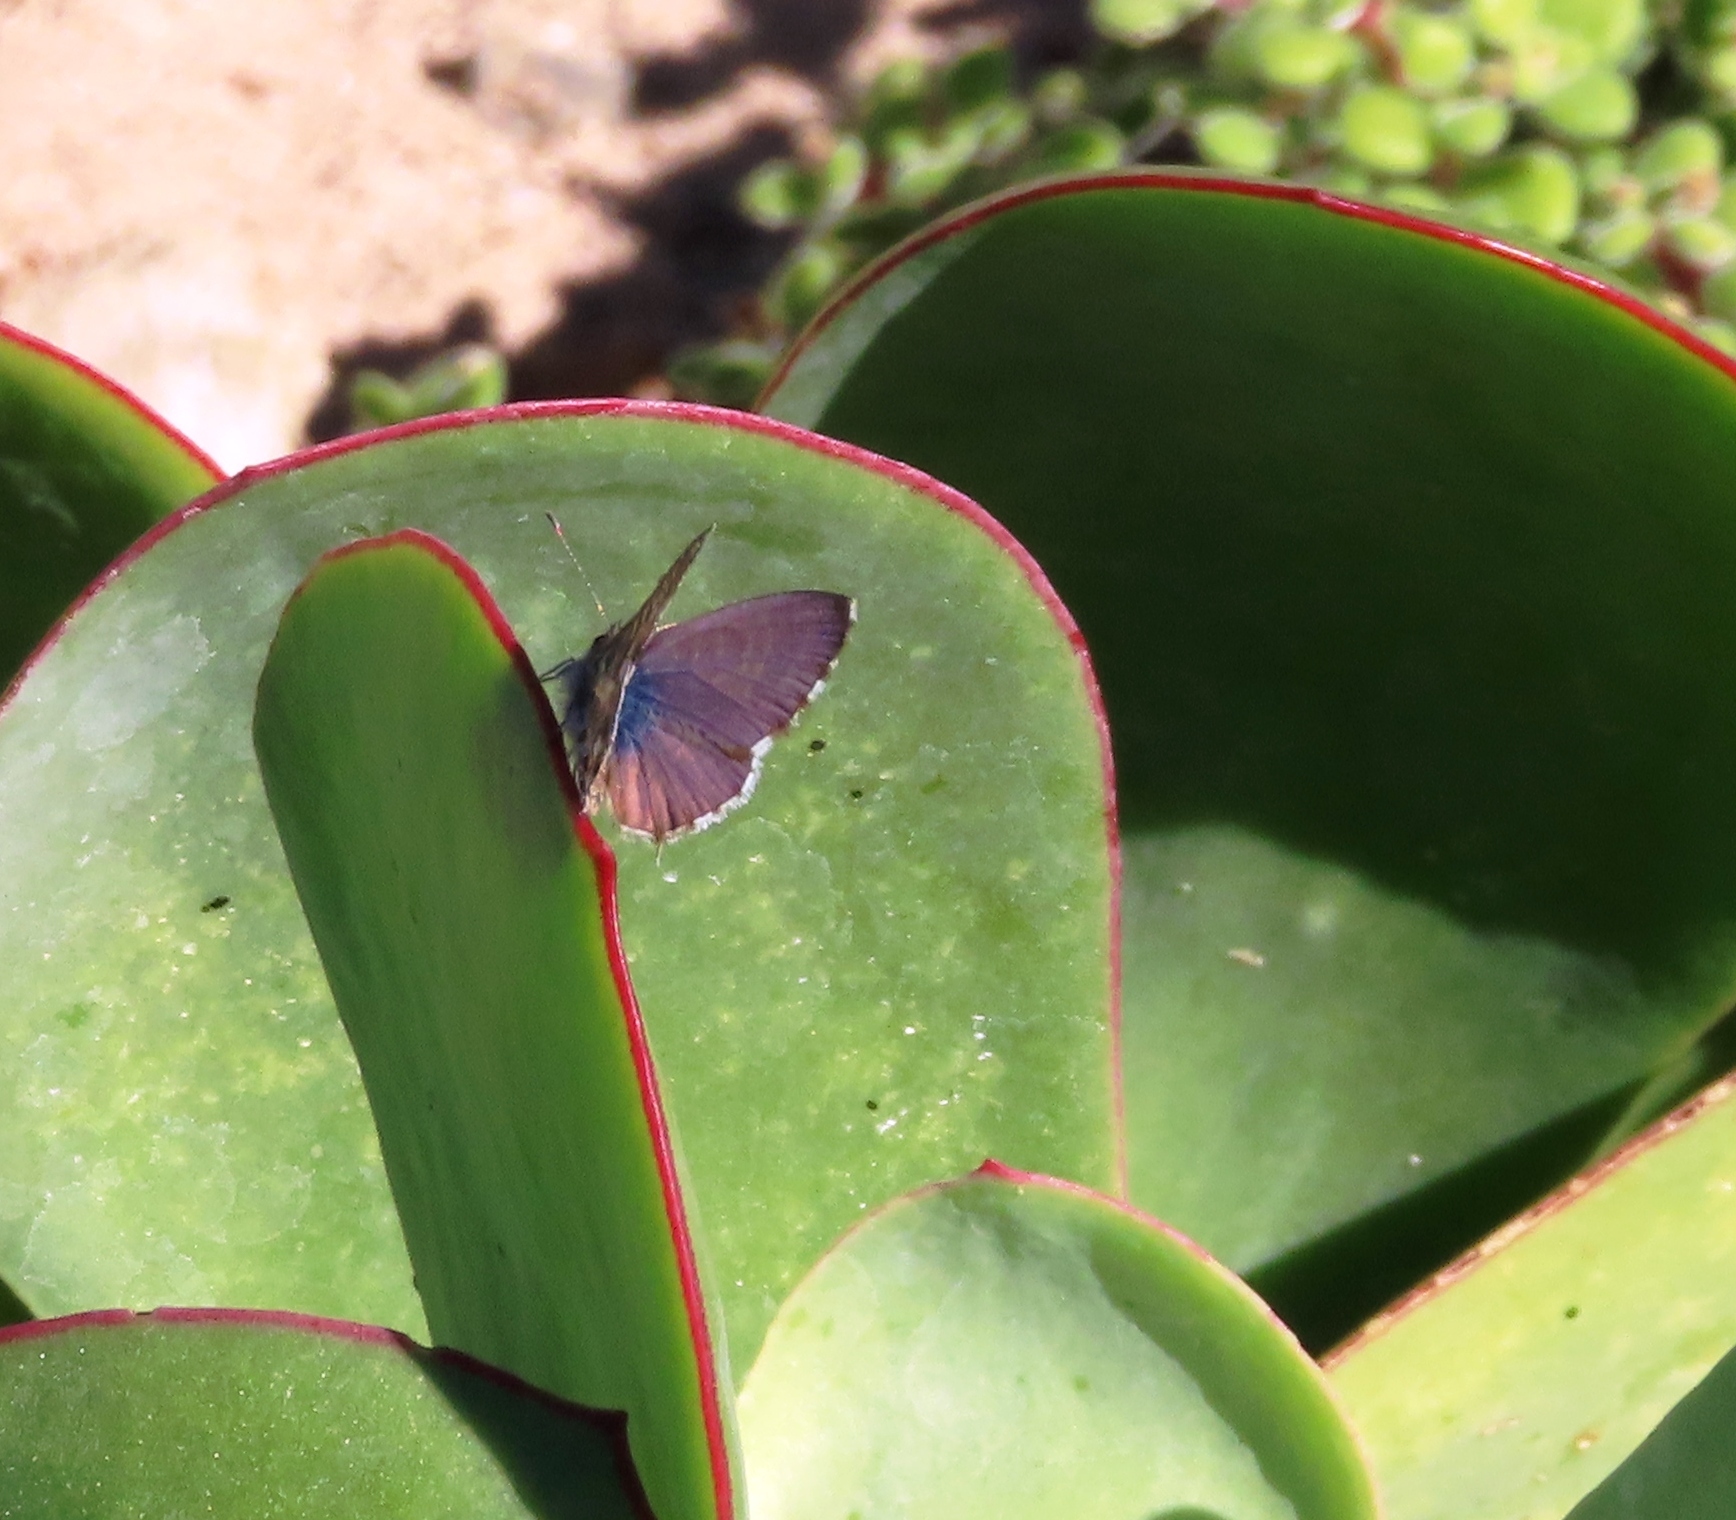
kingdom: Animalia
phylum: Arthropoda
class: Insecta
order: Lepidoptera
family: Lycaenidae
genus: Zizeeria
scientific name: Zizeeria knysna
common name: African grass blue
